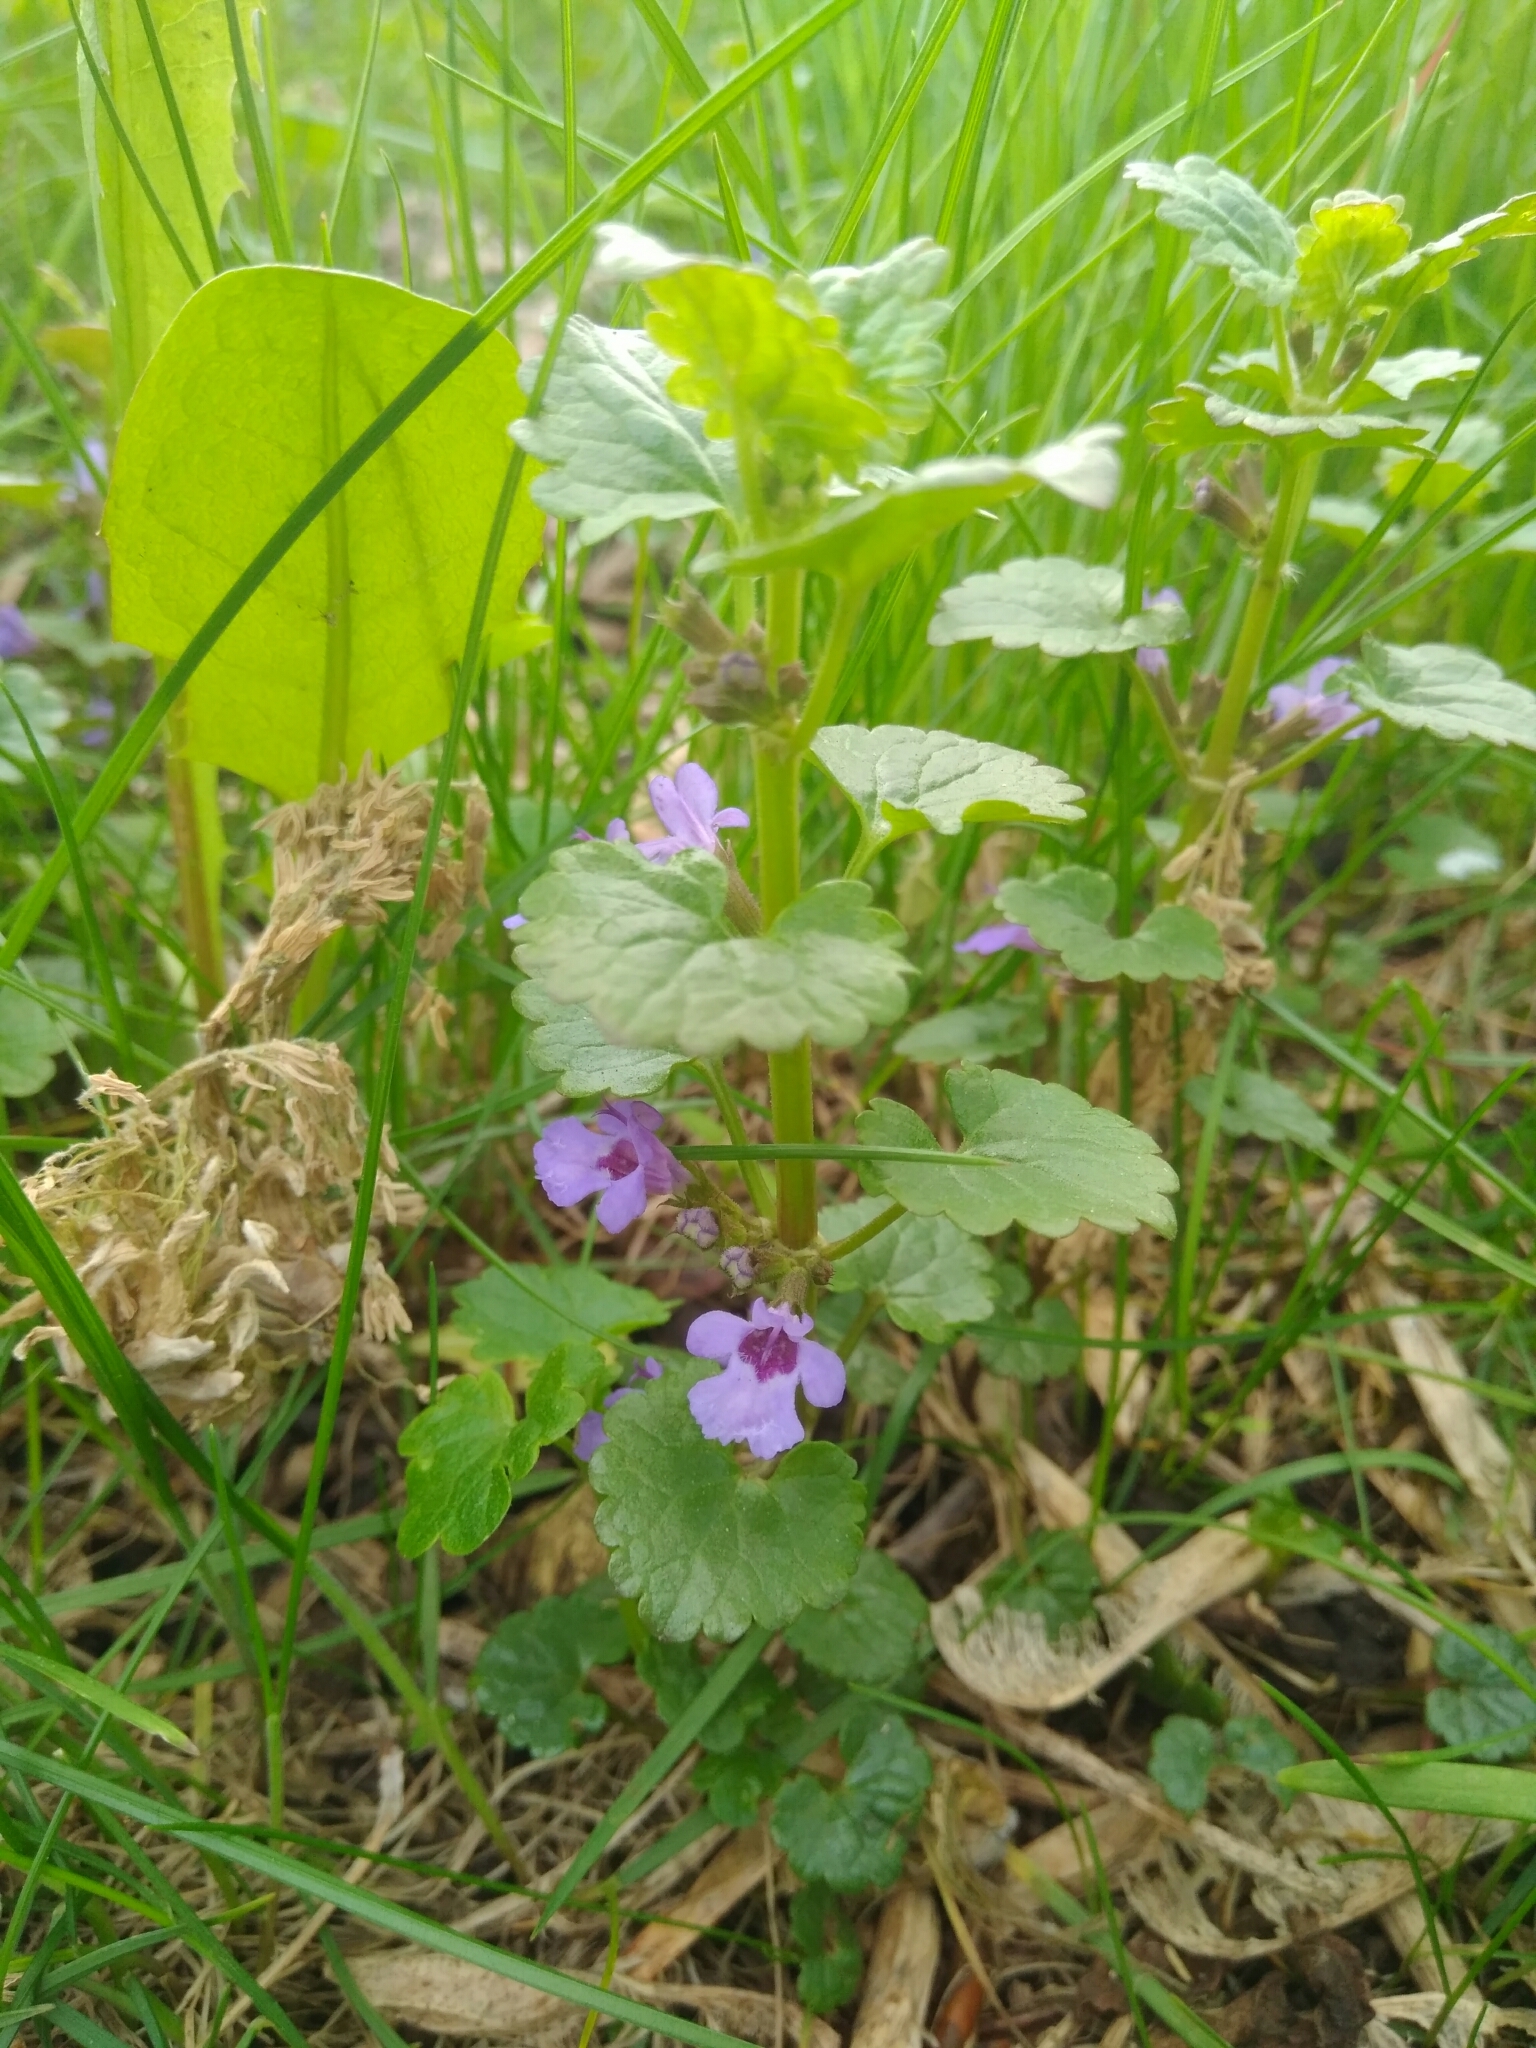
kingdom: Plantae
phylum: Tracheophyta
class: Magnoliopsida
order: Lamiales
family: Lamiaceae
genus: Glechoma
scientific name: Glechoma hederacea
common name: Ground ivy
